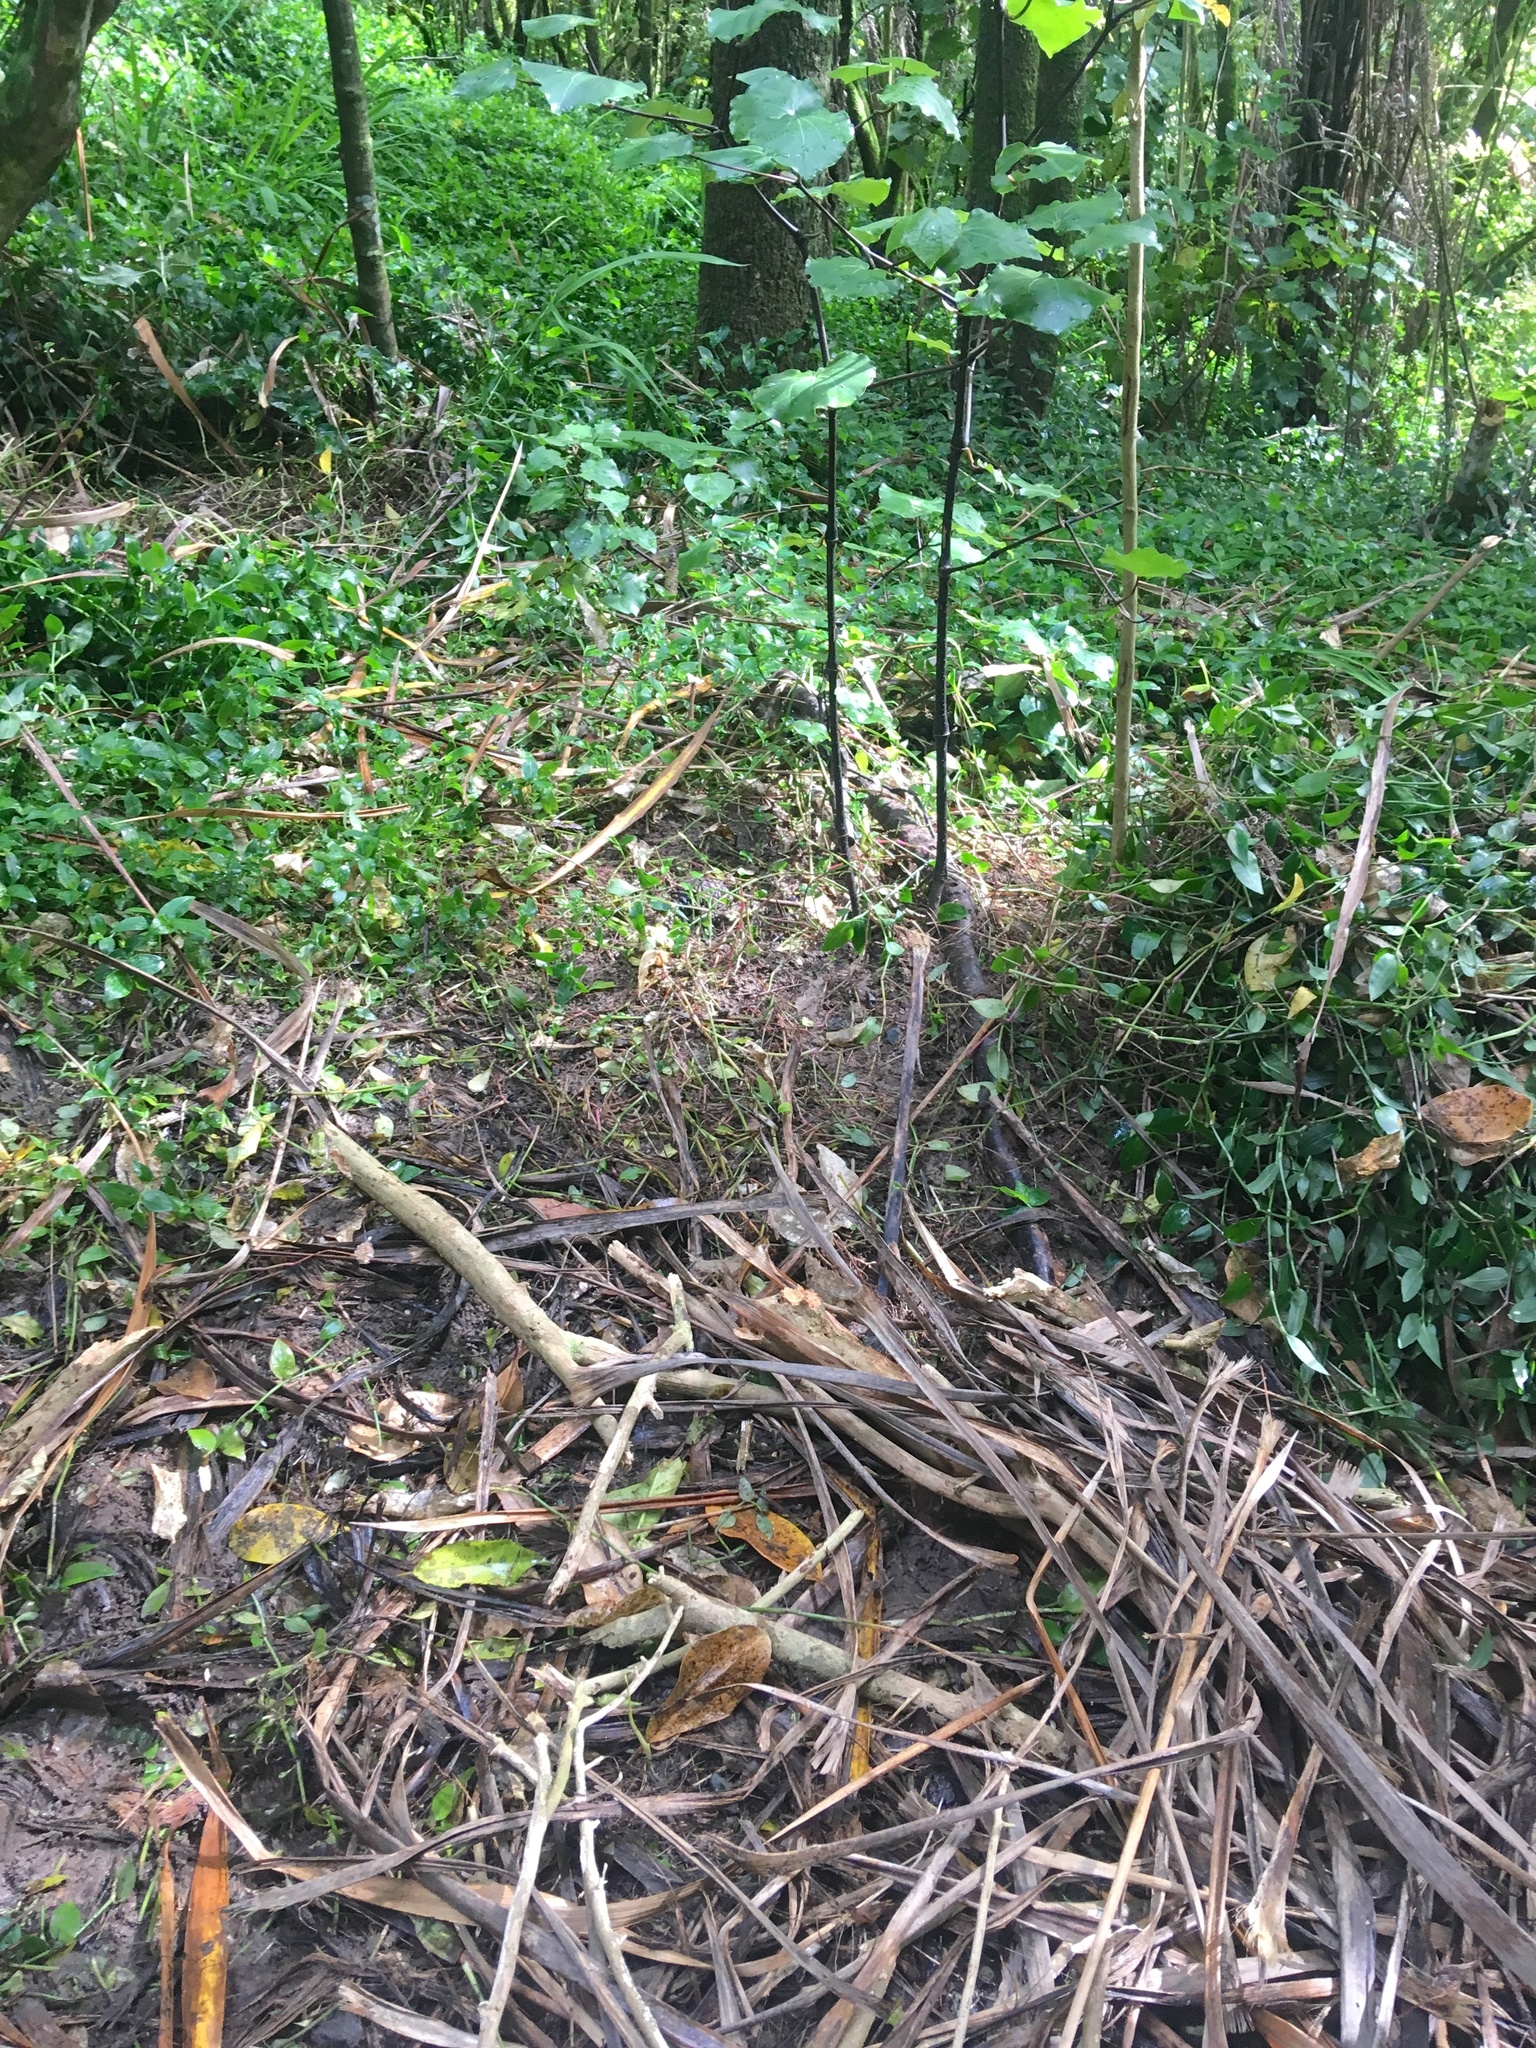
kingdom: Plantae
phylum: Tracheophyta
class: Magnoliopsida
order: Piperales
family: Piperaceae
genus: Macropiper
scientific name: Macropiper excelsum
